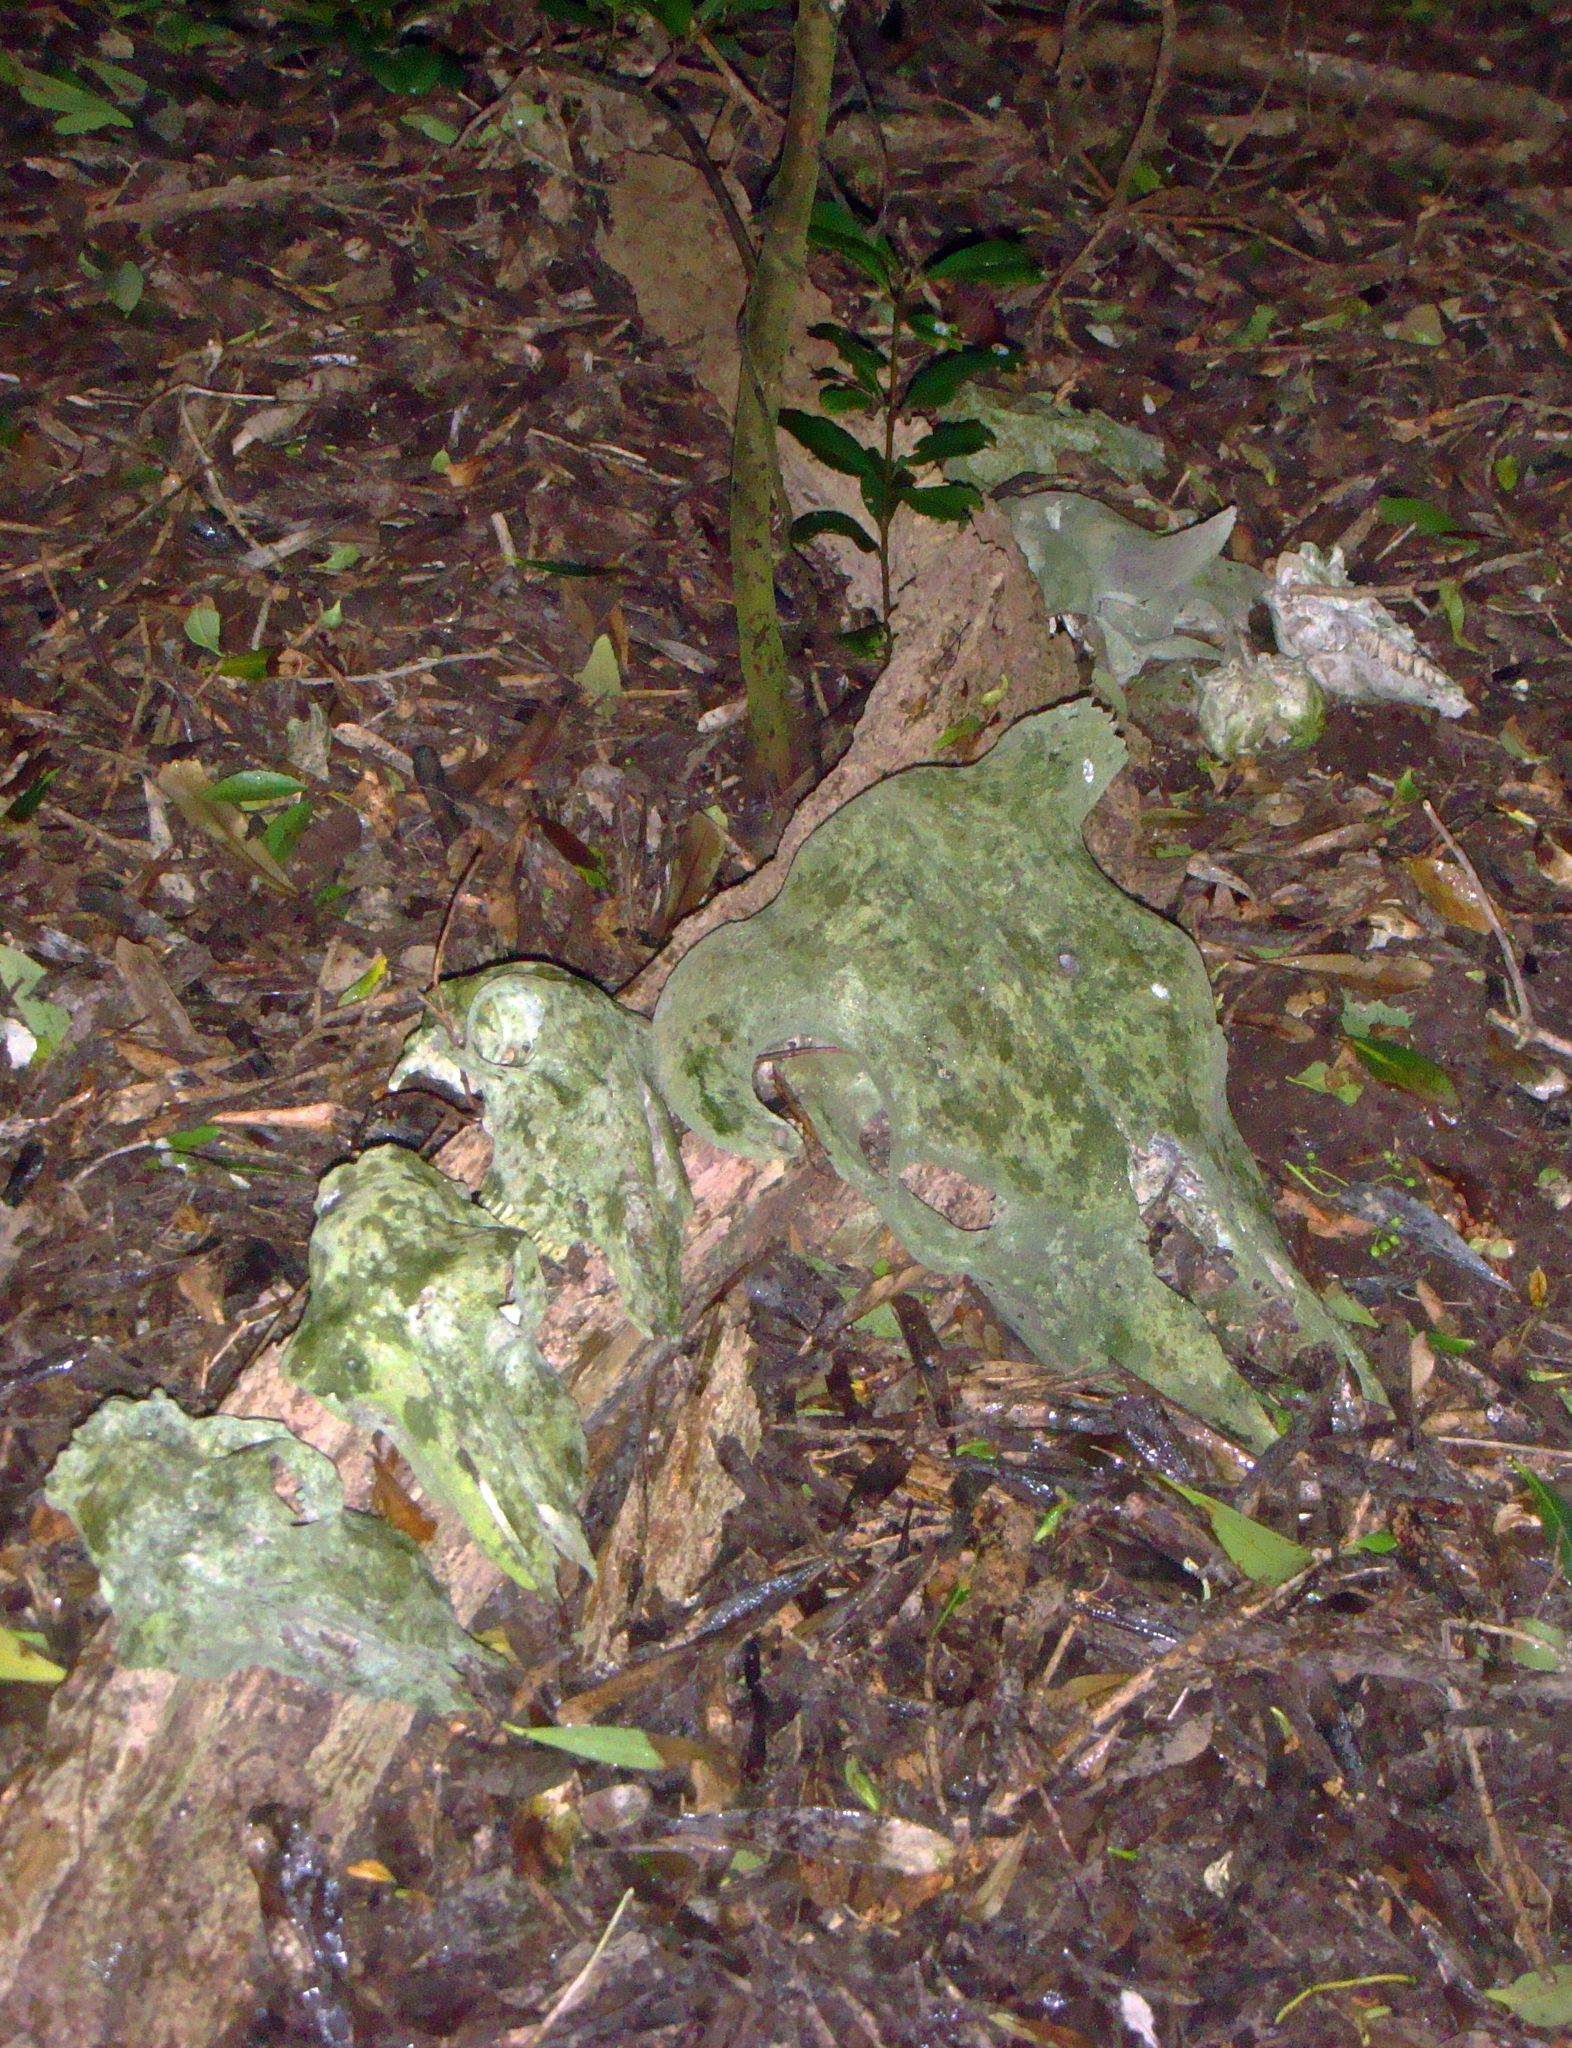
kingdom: Animalia
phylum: Chordata
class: Mammalia
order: Artiodactyla
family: Bovidae
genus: Ovis
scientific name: Ovis aries
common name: Domestic sheep
